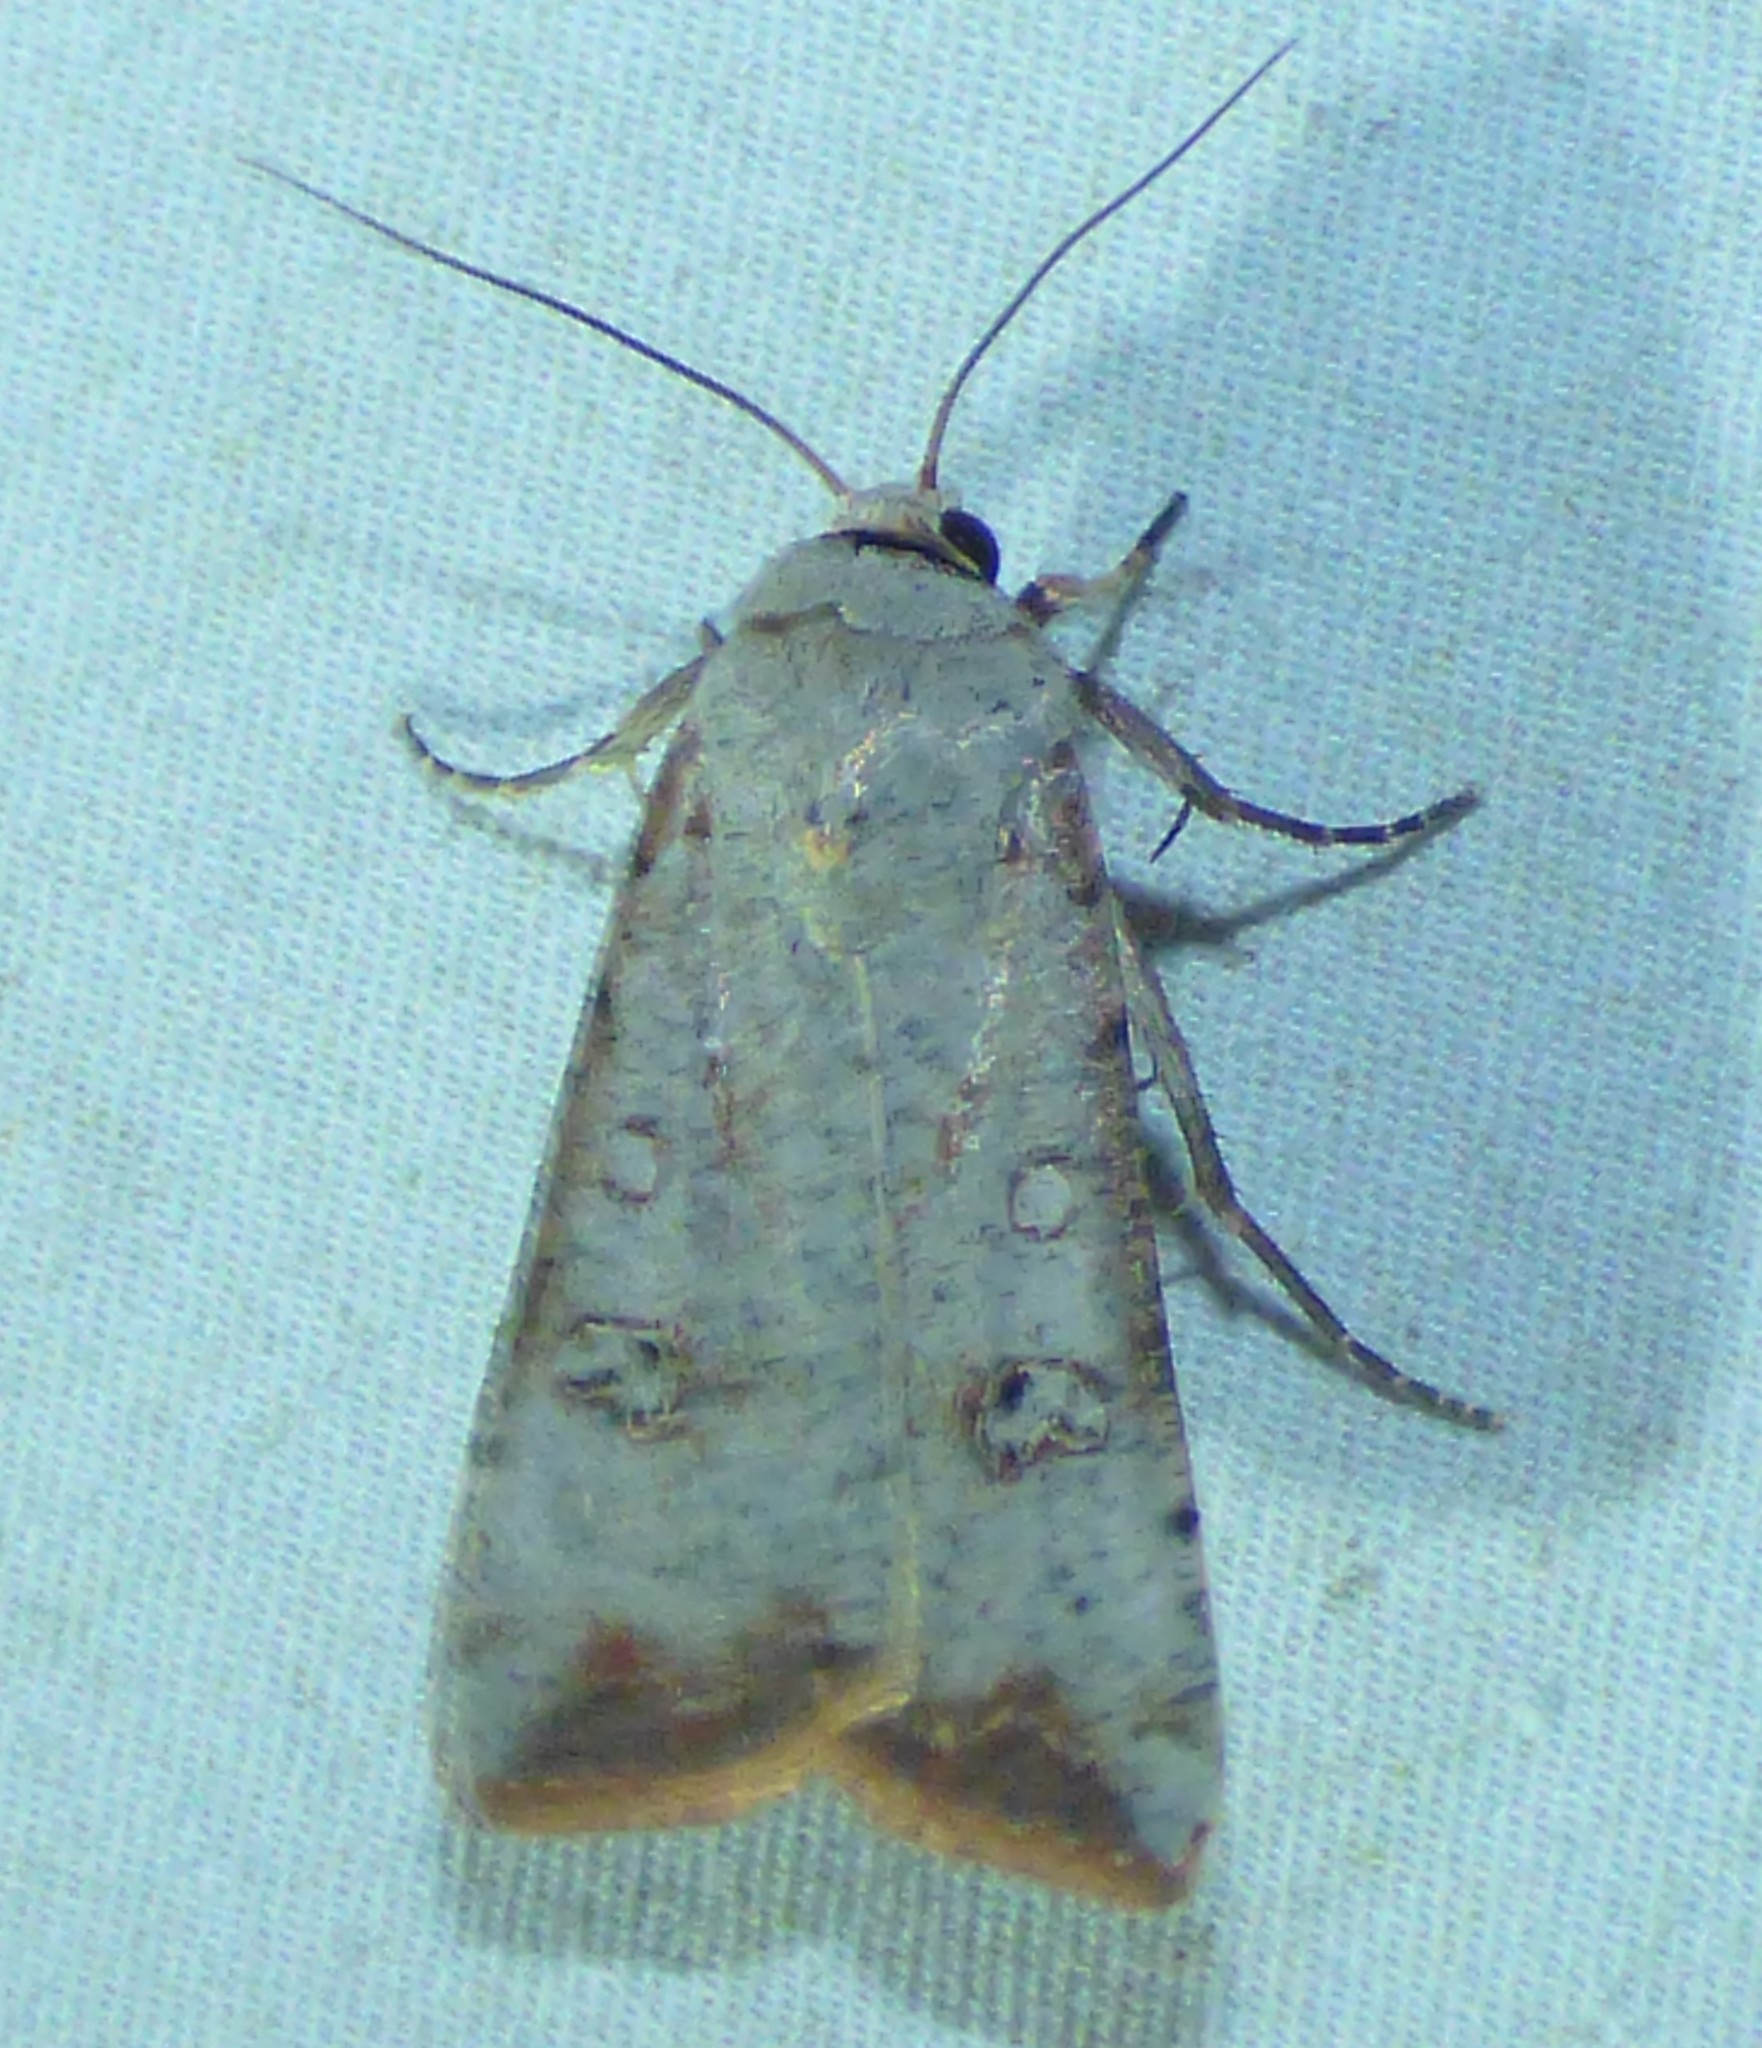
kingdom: Animalia
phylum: Arthropoda
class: Insecta
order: Lepidoptera
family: Noctuidae
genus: Anicla
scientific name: Anicla infecta
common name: Green cutworm
